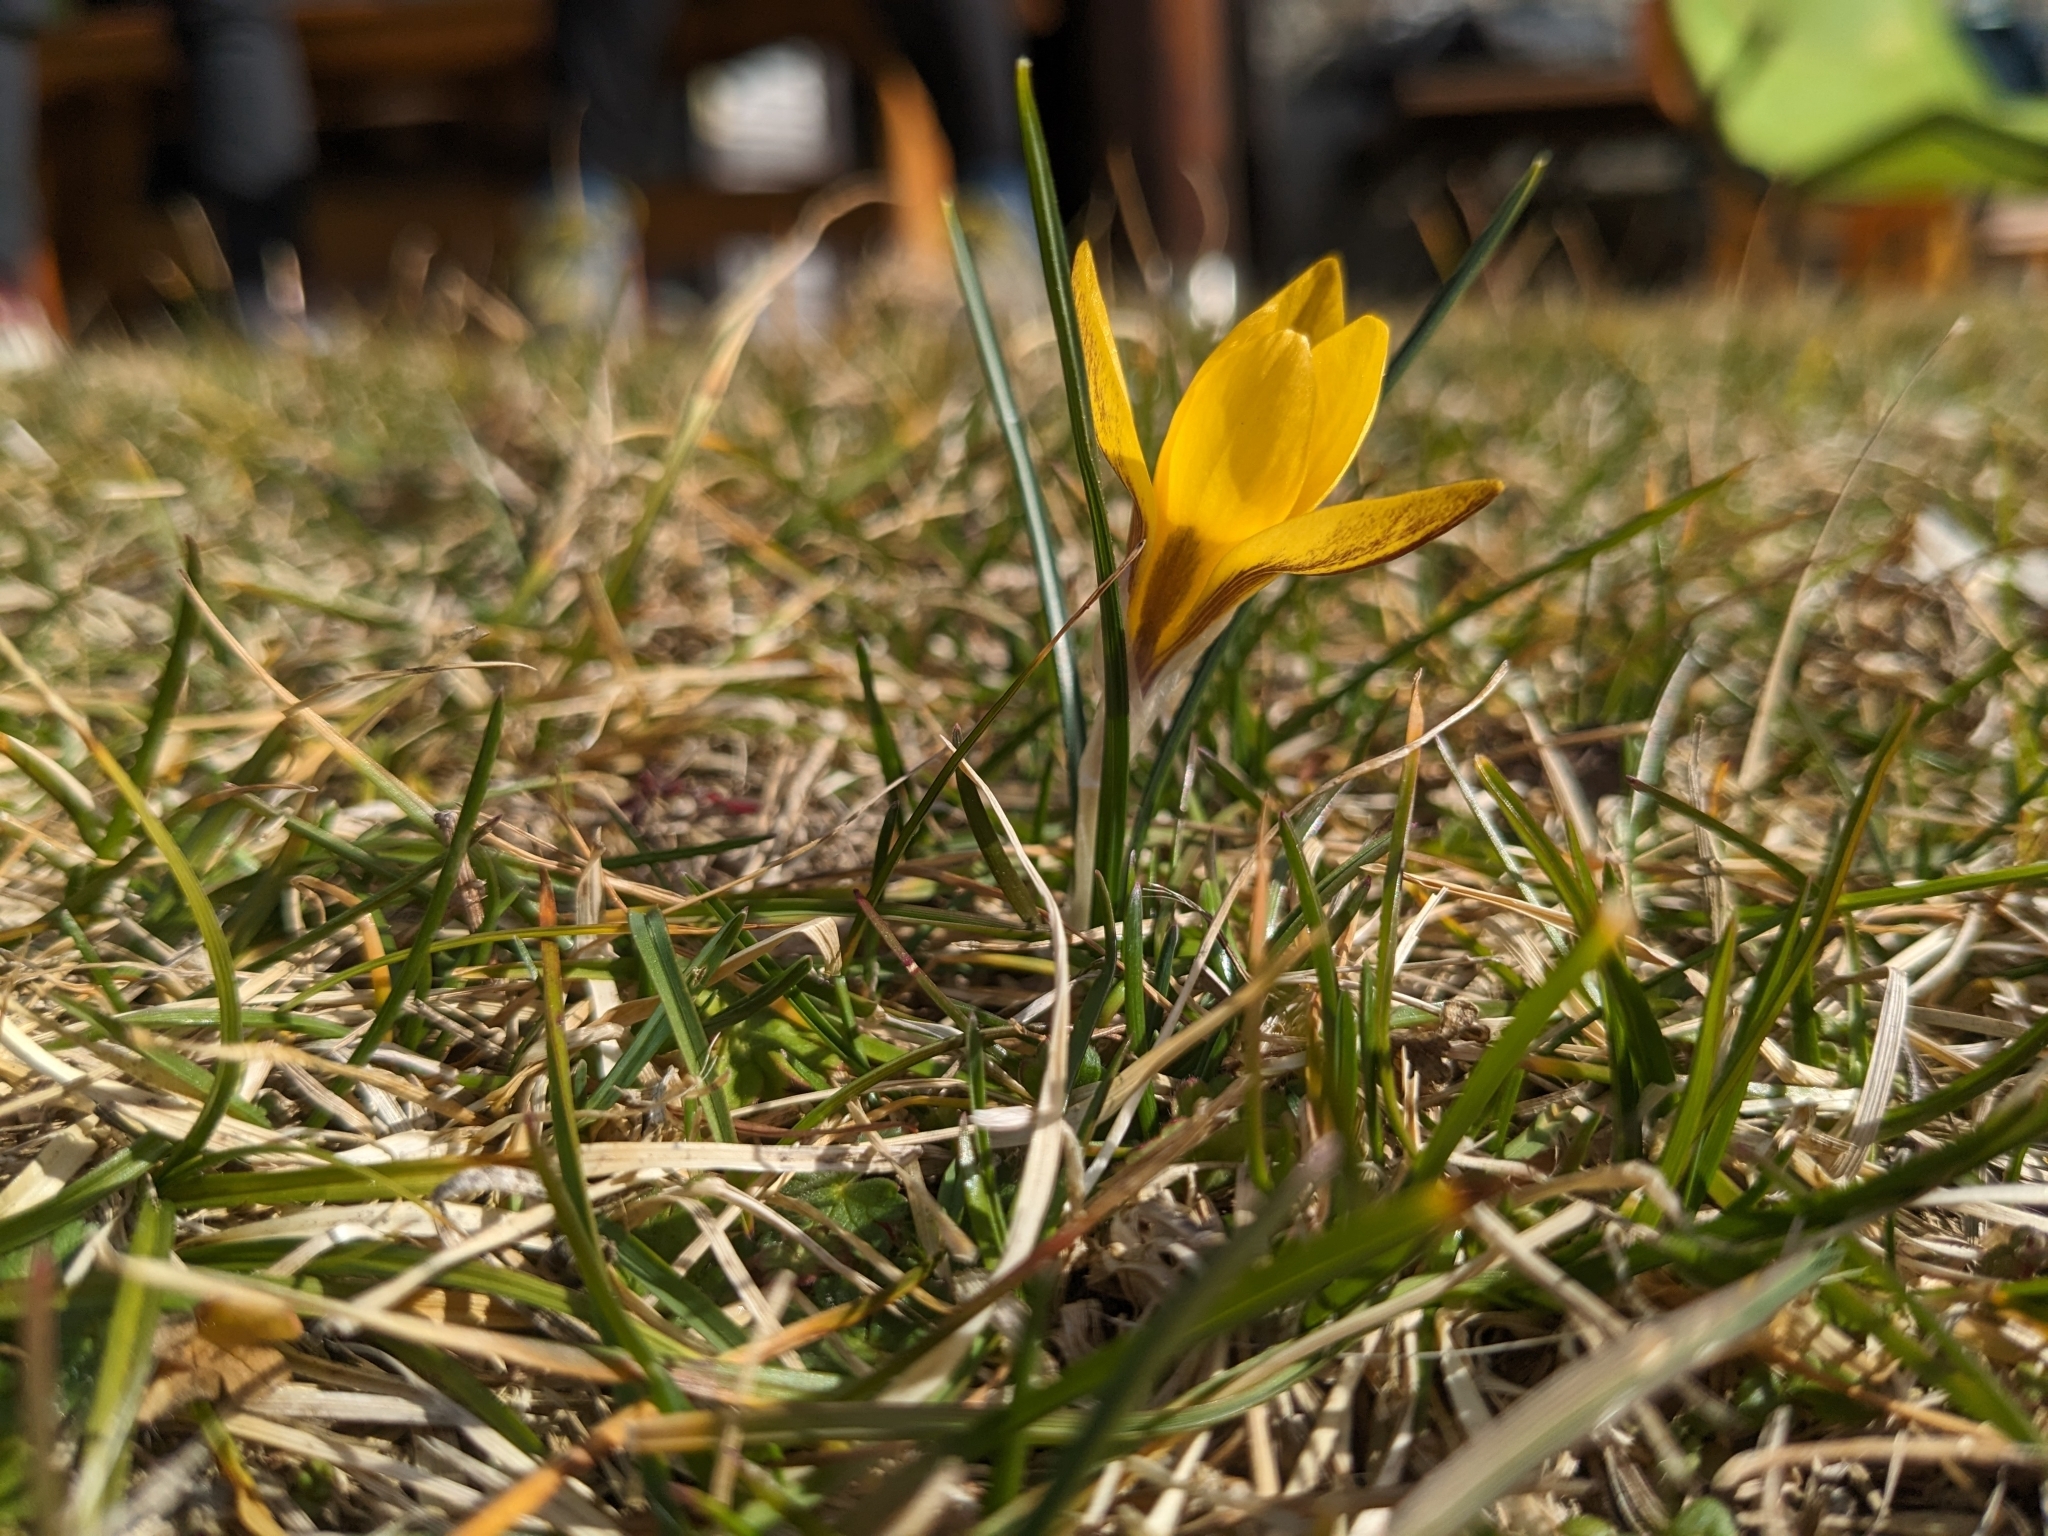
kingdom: Plantae
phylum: Tracheophyta
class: Liliopsida
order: Asparagales
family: Iridaceae
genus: Crocus
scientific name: Crocus chrysanthus
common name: Golden crocus
